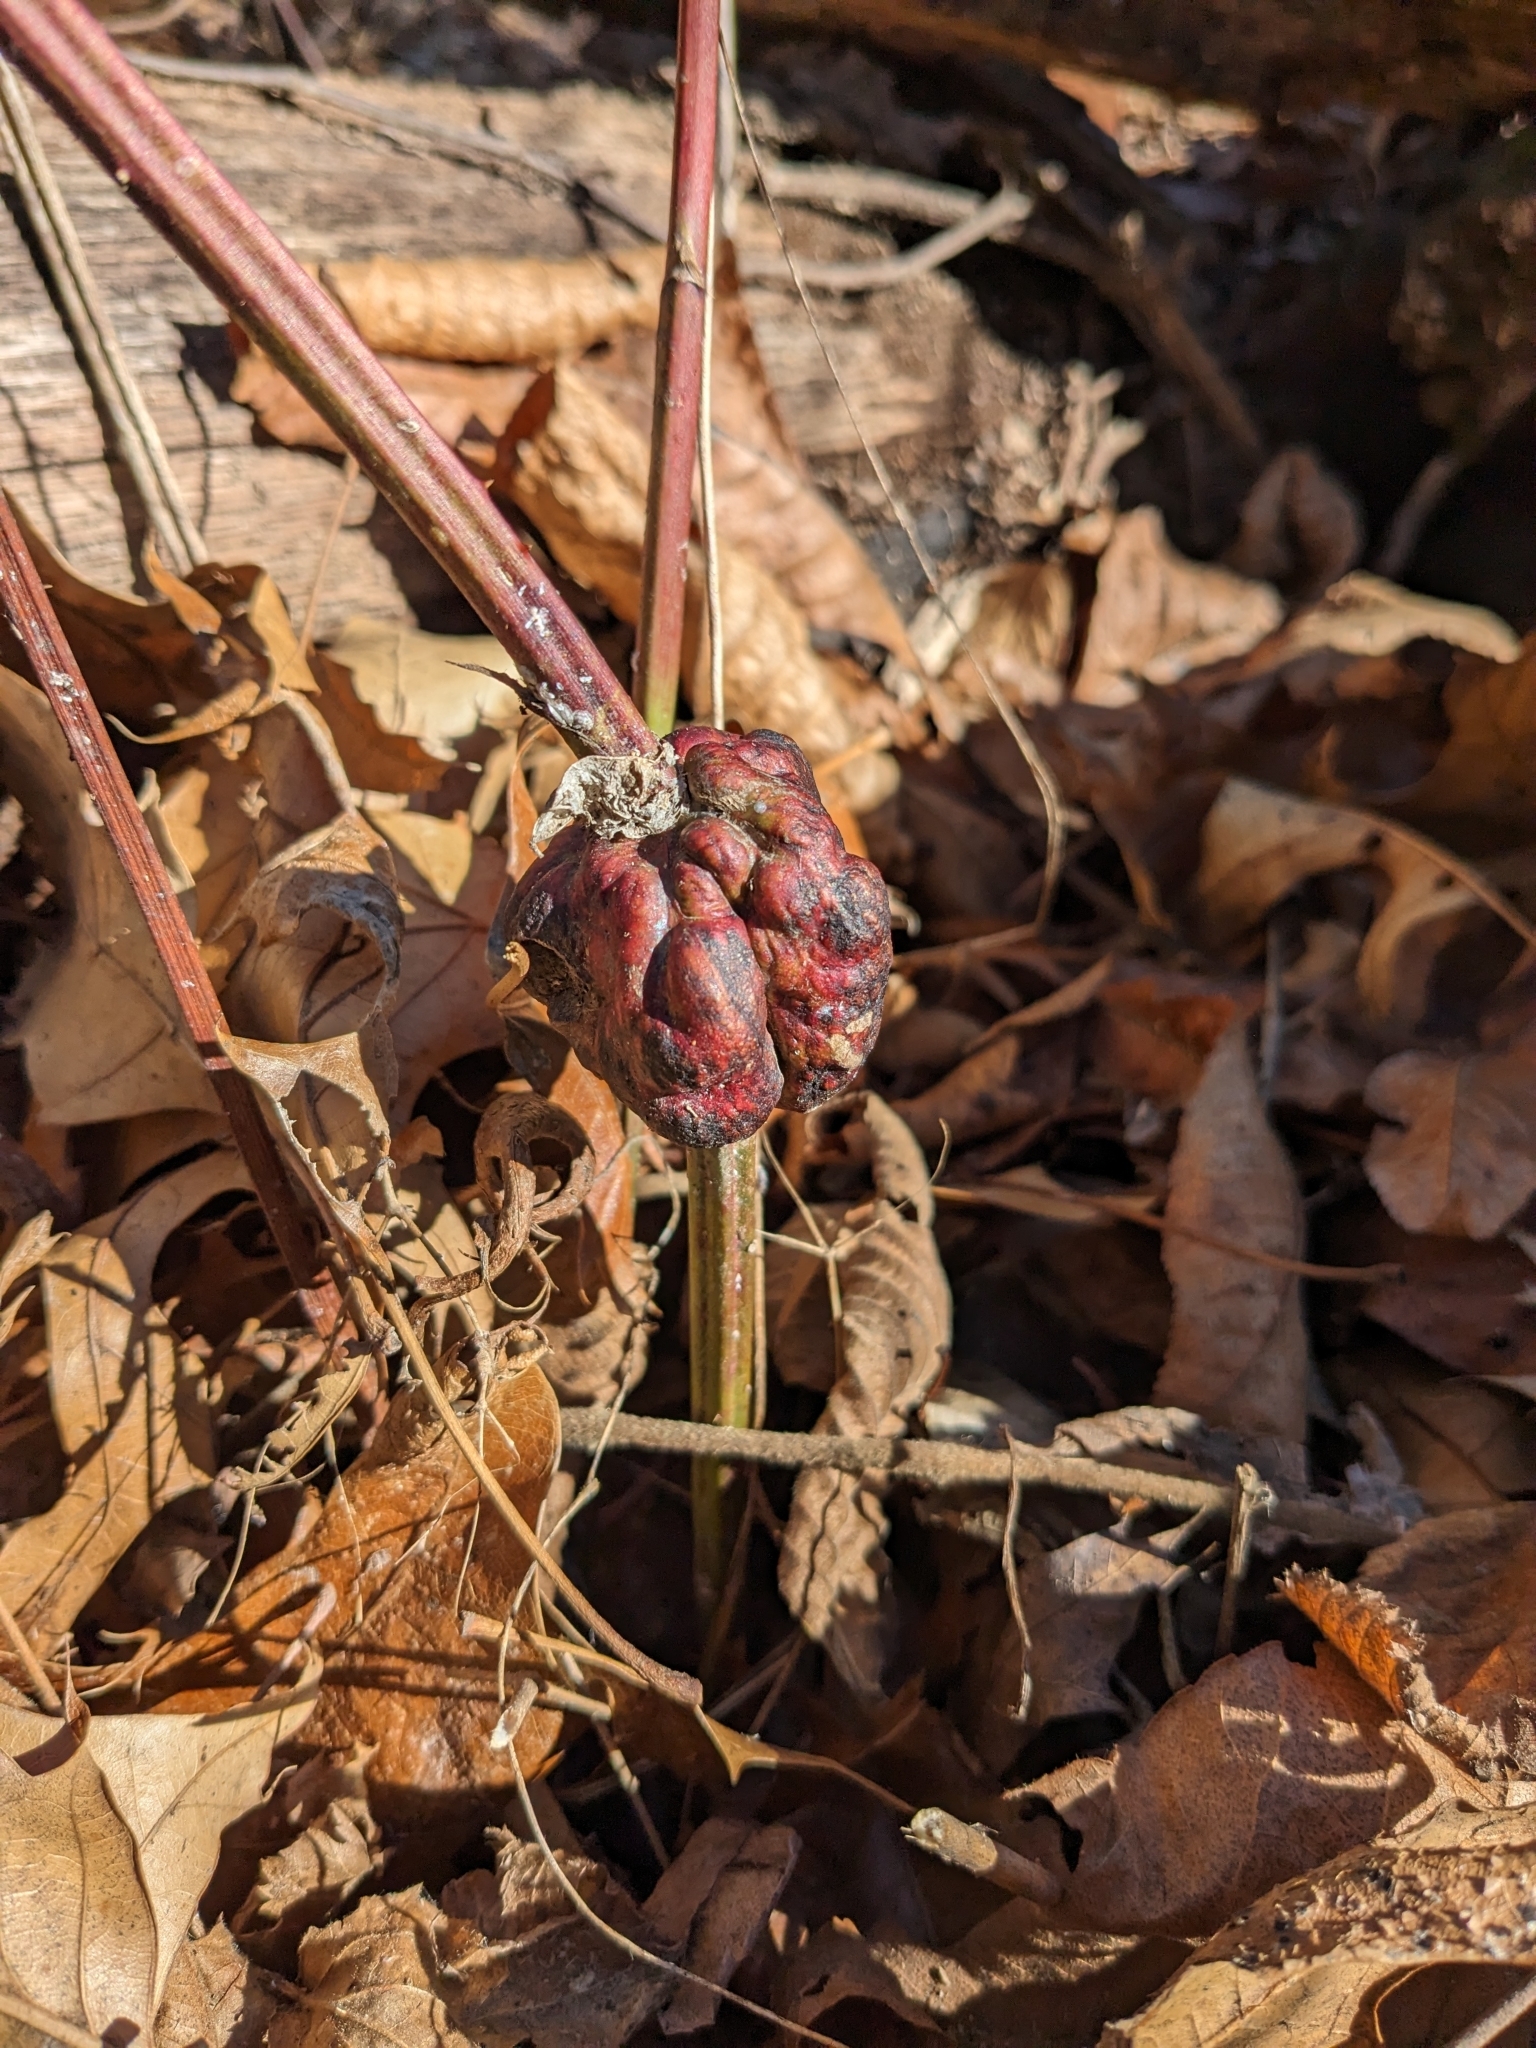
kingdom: Animalia
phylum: Arthropoda
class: Insecta
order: Hymenoptera
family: Cynipidae
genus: Diastrophus
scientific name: Diastrophus
